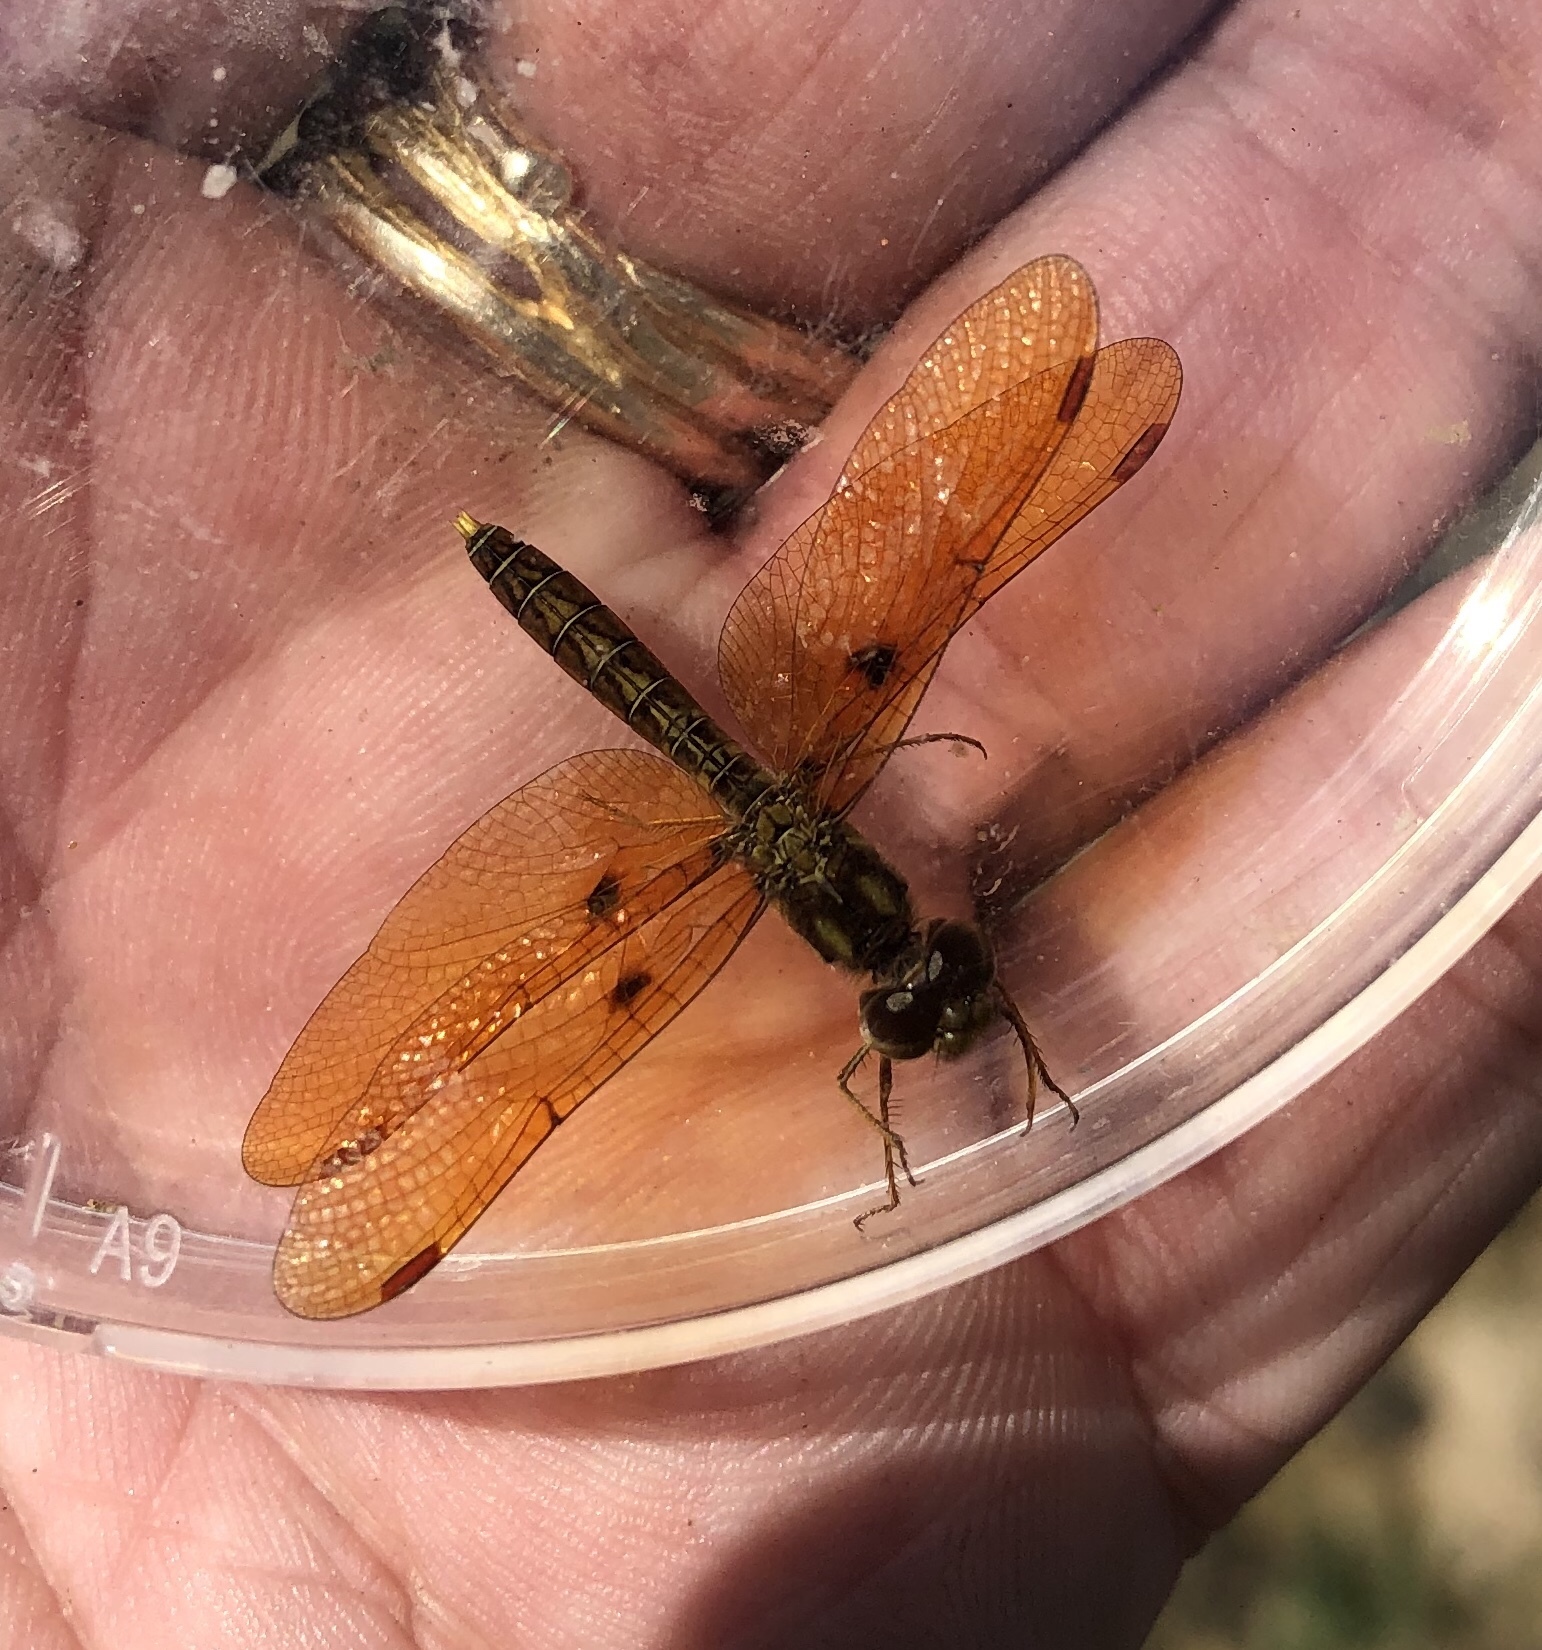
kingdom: Animalia
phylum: Arthropoda
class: Insecta
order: Odonata
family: Libellulidae
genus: Perithemis
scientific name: Perithemis tenera
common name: Eastern amberwing
